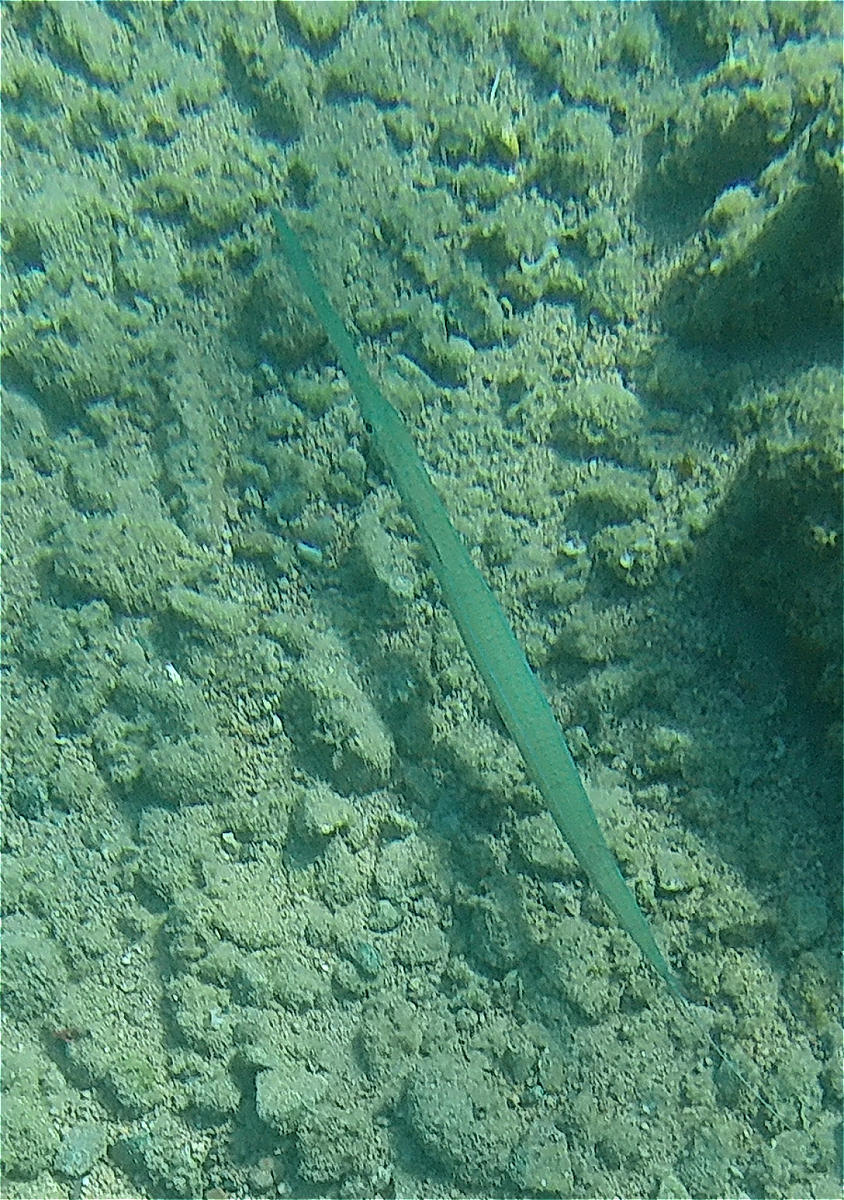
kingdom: Animalia
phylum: Chordata
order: Syngnathiformes
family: Fistulariidae
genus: Fistularia
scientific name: Fistularia commersonii
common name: Bluespotted cornetfish
